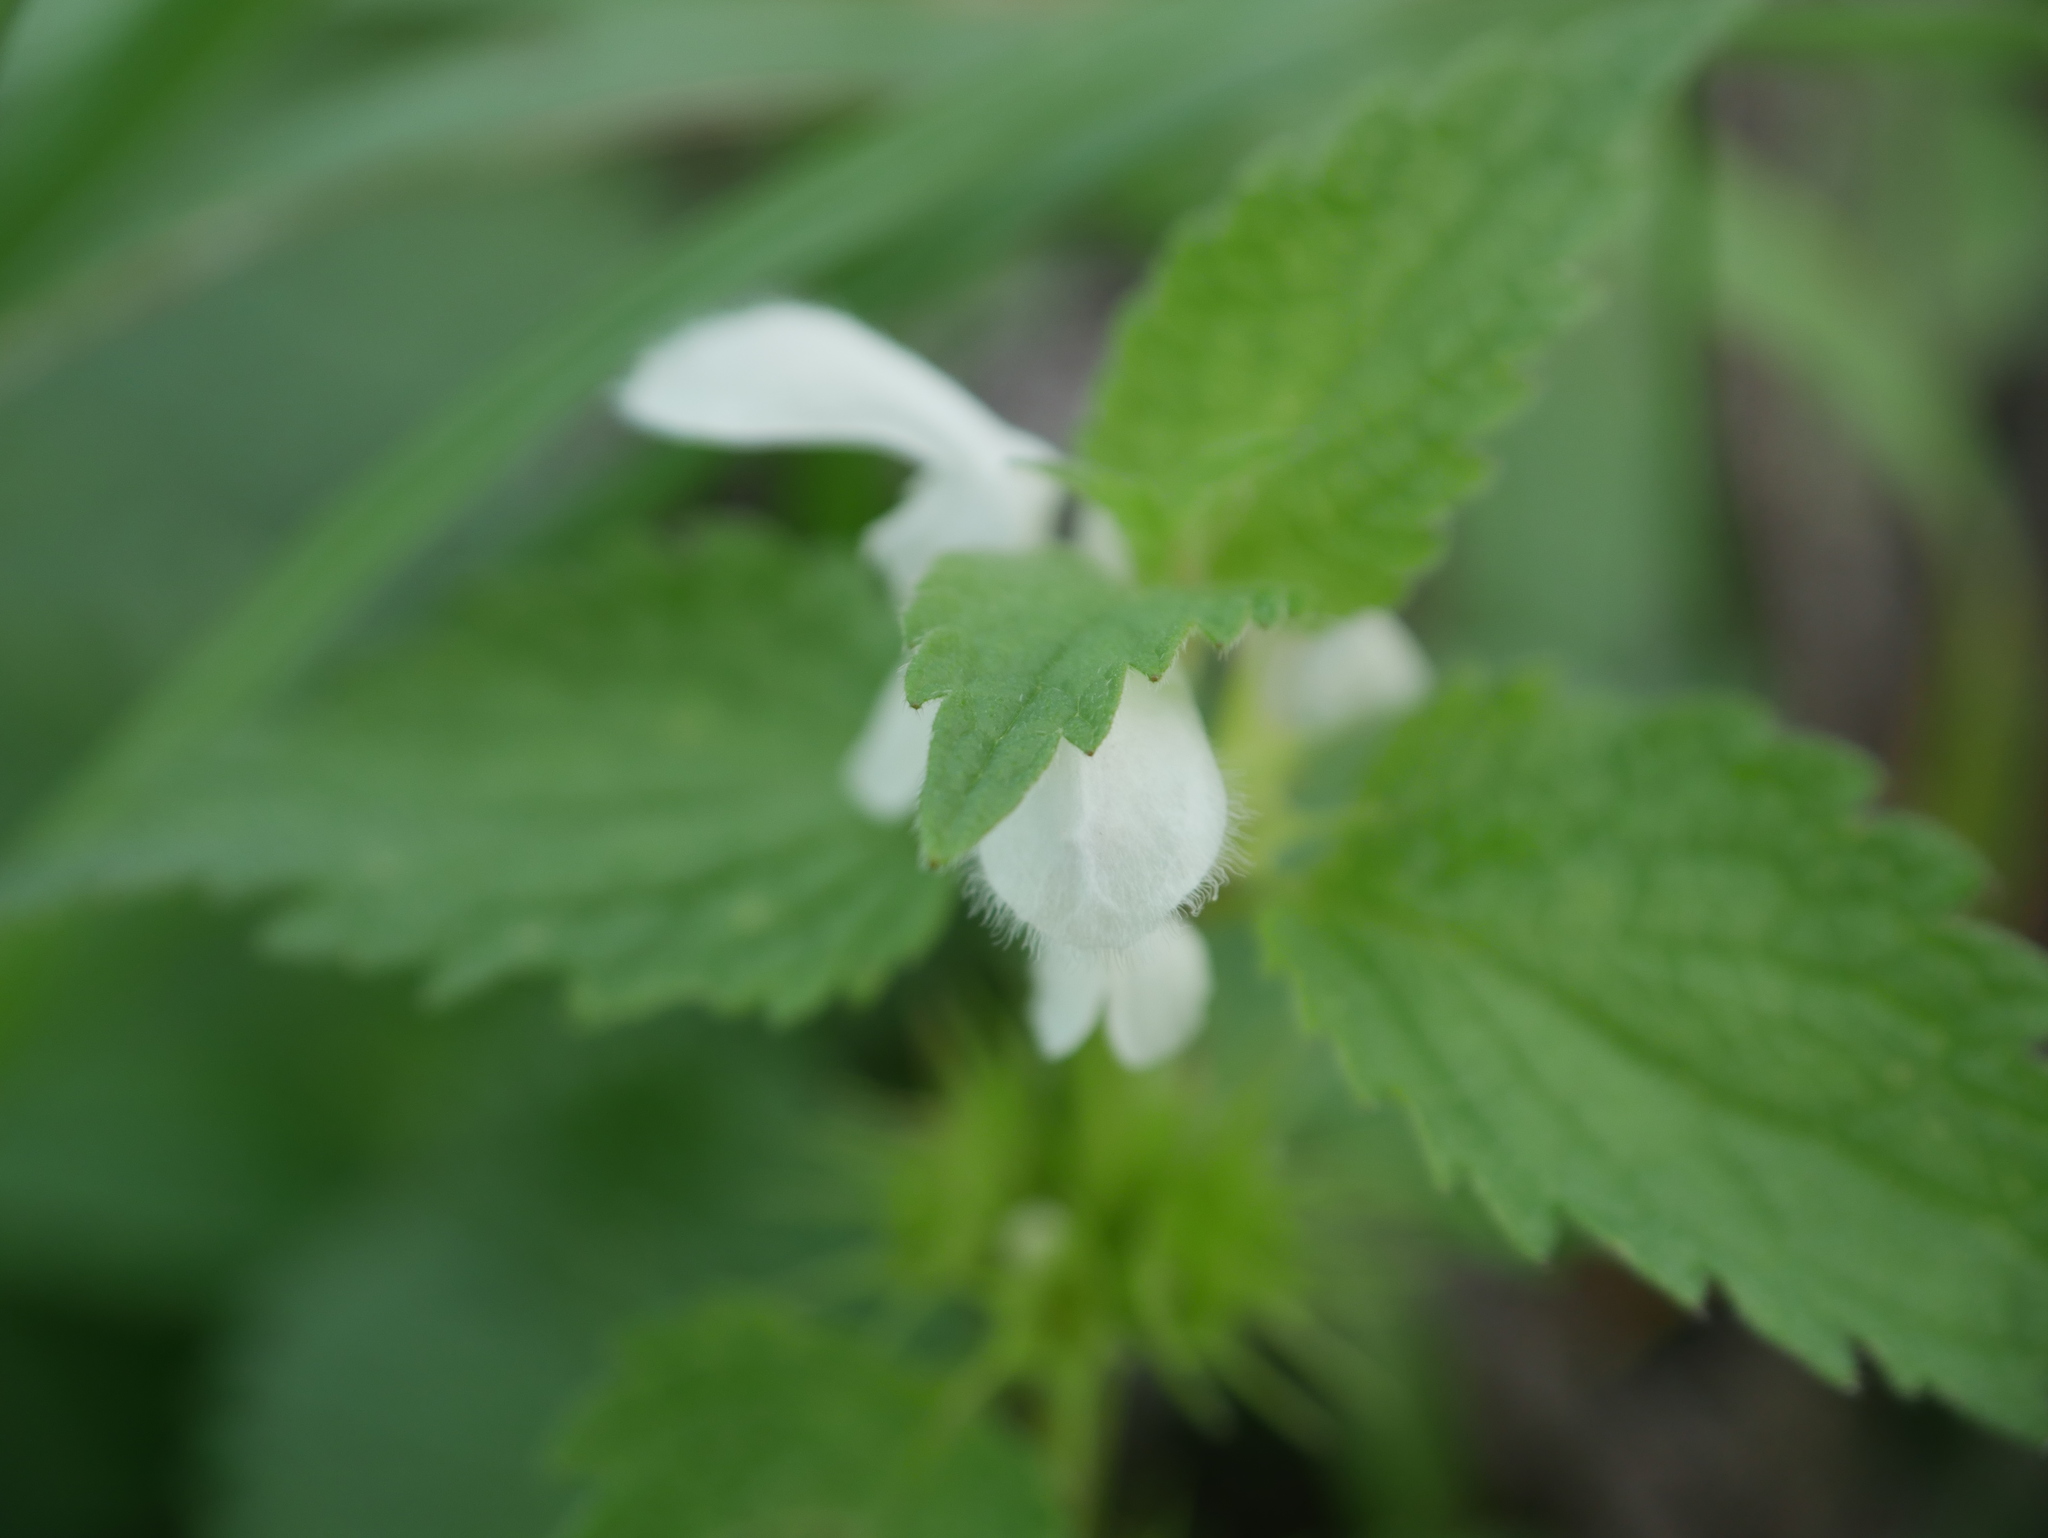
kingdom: Plantae
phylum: Tracheophyta
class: Magnoliopsida
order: Lamiales
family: Lamiaceae
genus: Lamium
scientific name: Lamium album
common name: White dead-nettle
